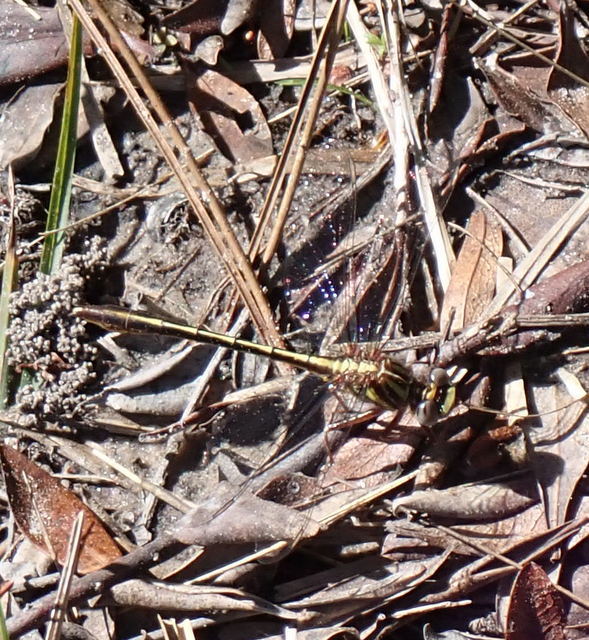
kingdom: Animalia
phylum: Arthropoda
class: Insecta
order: Odonata
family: Gomphidae
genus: Phanogomphus
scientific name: Phanogomphus minutus
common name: Cypress clubtail
